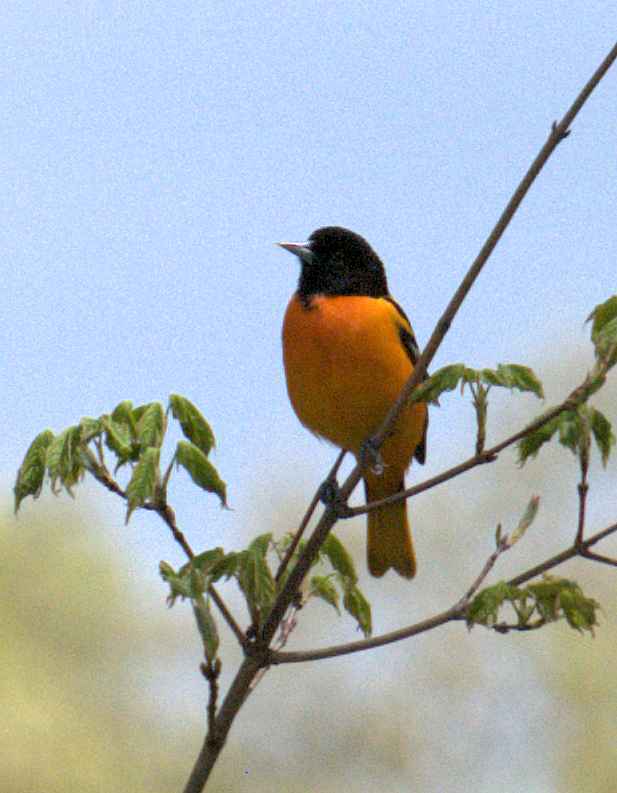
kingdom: Animalia
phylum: Chordata
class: Aves
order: Passeriformes
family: Icteridae
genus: Icterus
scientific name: Icterus galbula
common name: Baltimore oriole
